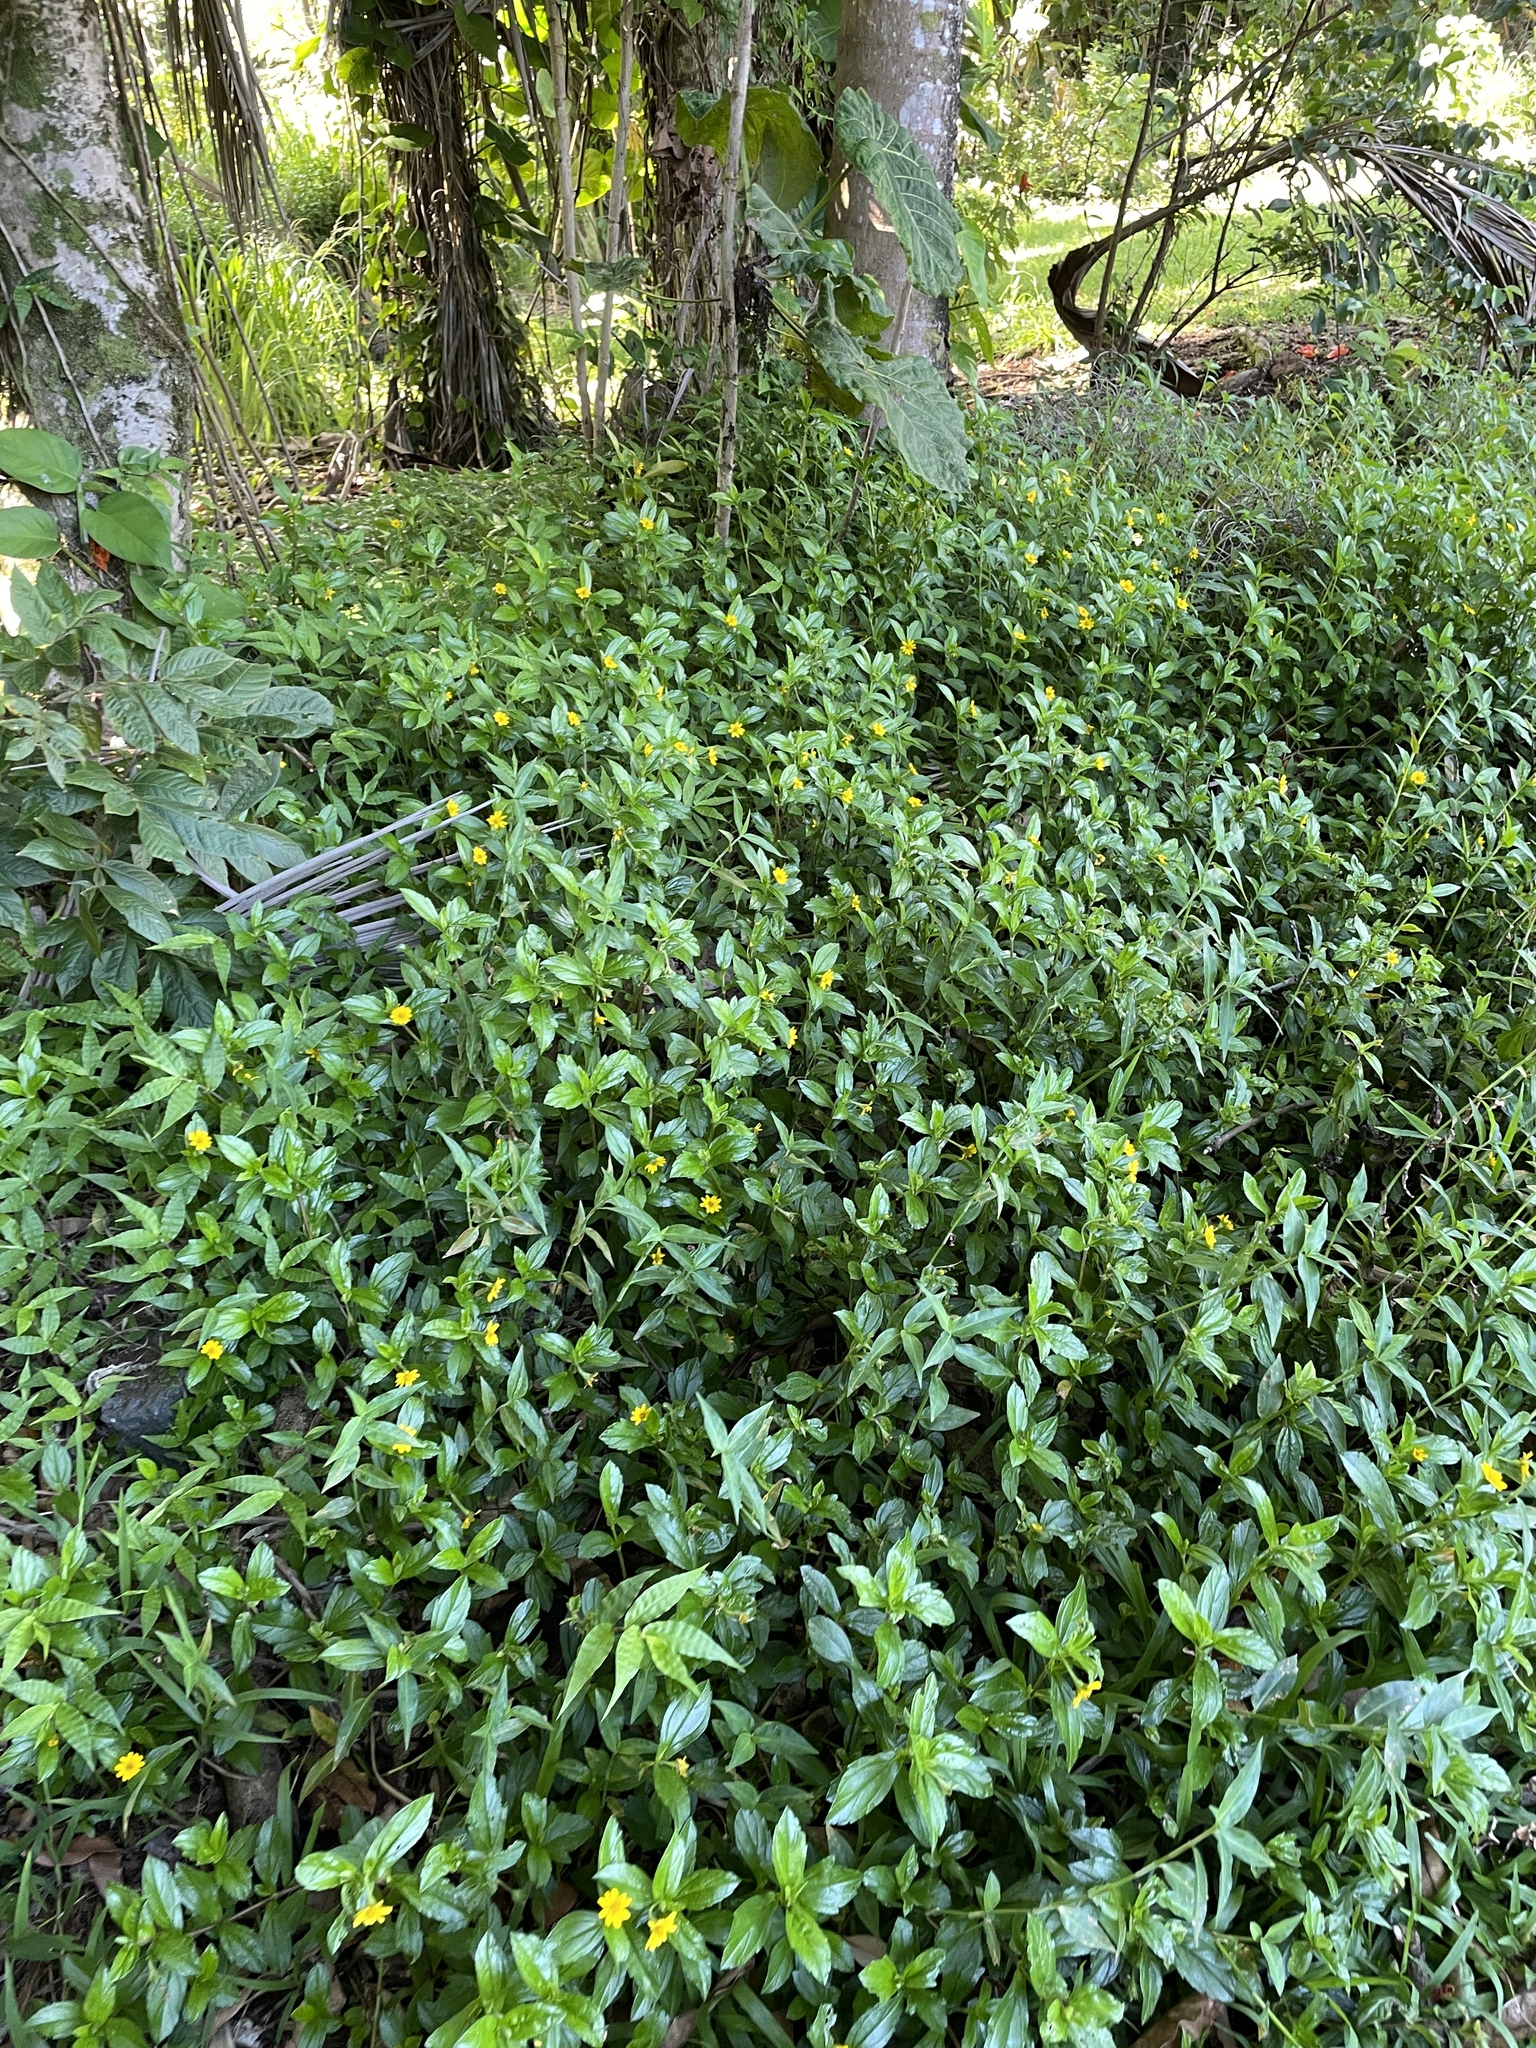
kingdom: Plantae
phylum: Tracheophyta
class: Magnoliopsida
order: Asterales
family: Asteraceae
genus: Sphagneticola
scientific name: Sphagneticola trilobata
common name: Bay biscayne creeping-oxeye
